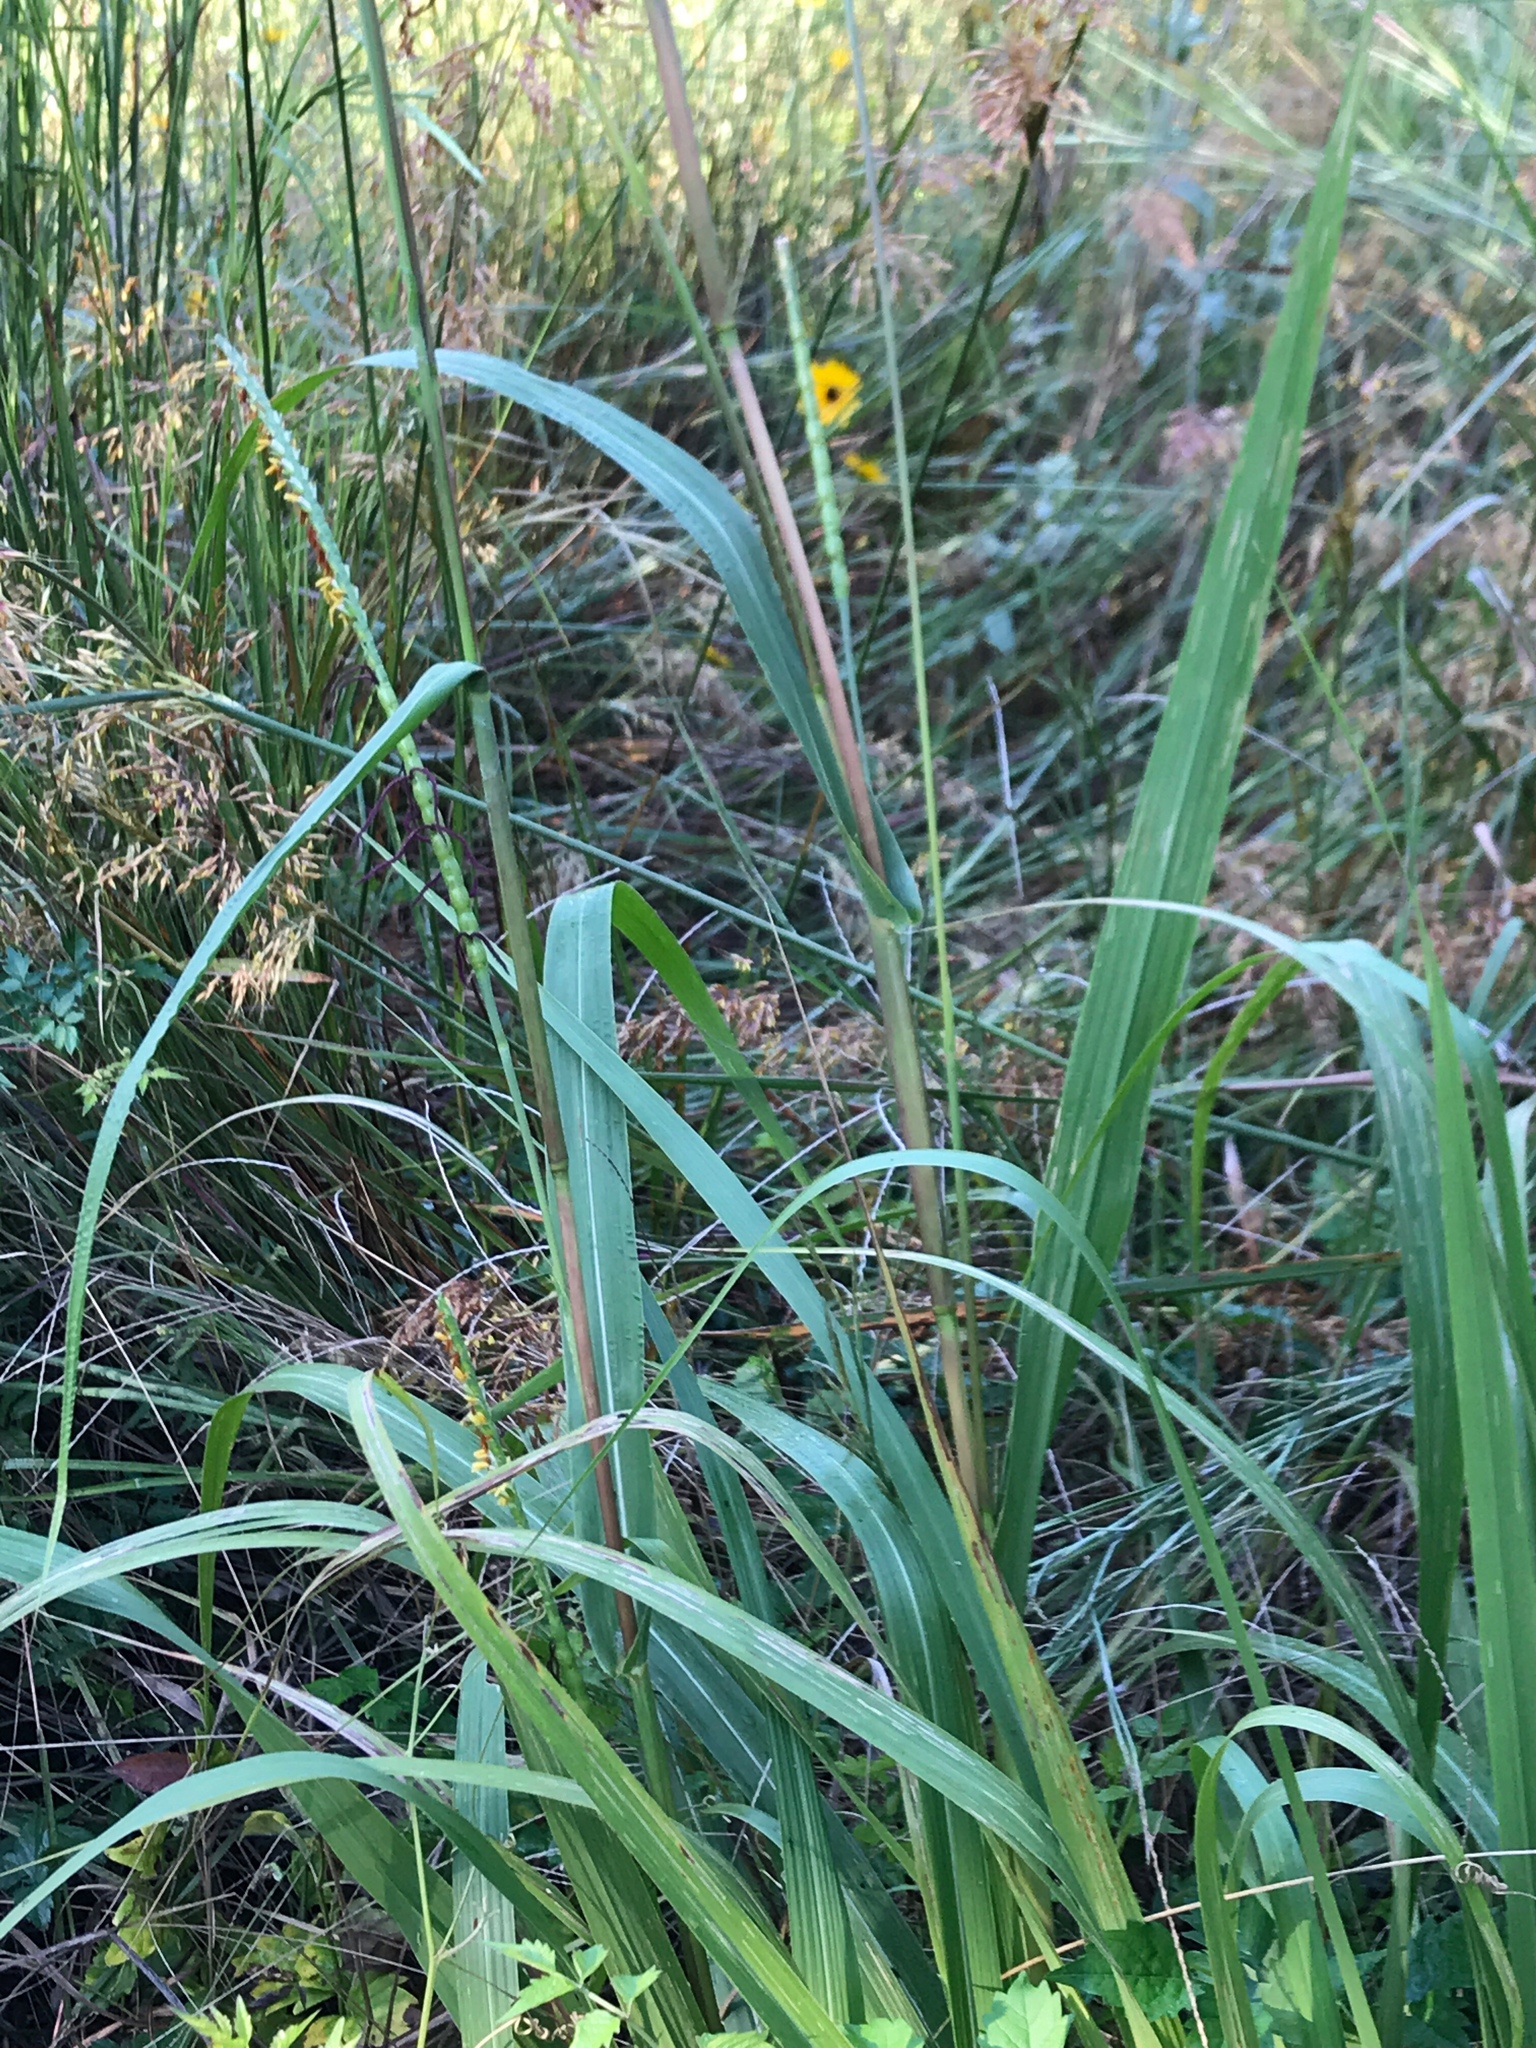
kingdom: Plantae
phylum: Tracheophyta
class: Liliopsida
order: Poales
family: Poaceae
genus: Tripsacum
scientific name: Tripsacum dactyloides
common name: Buffalo-grass
